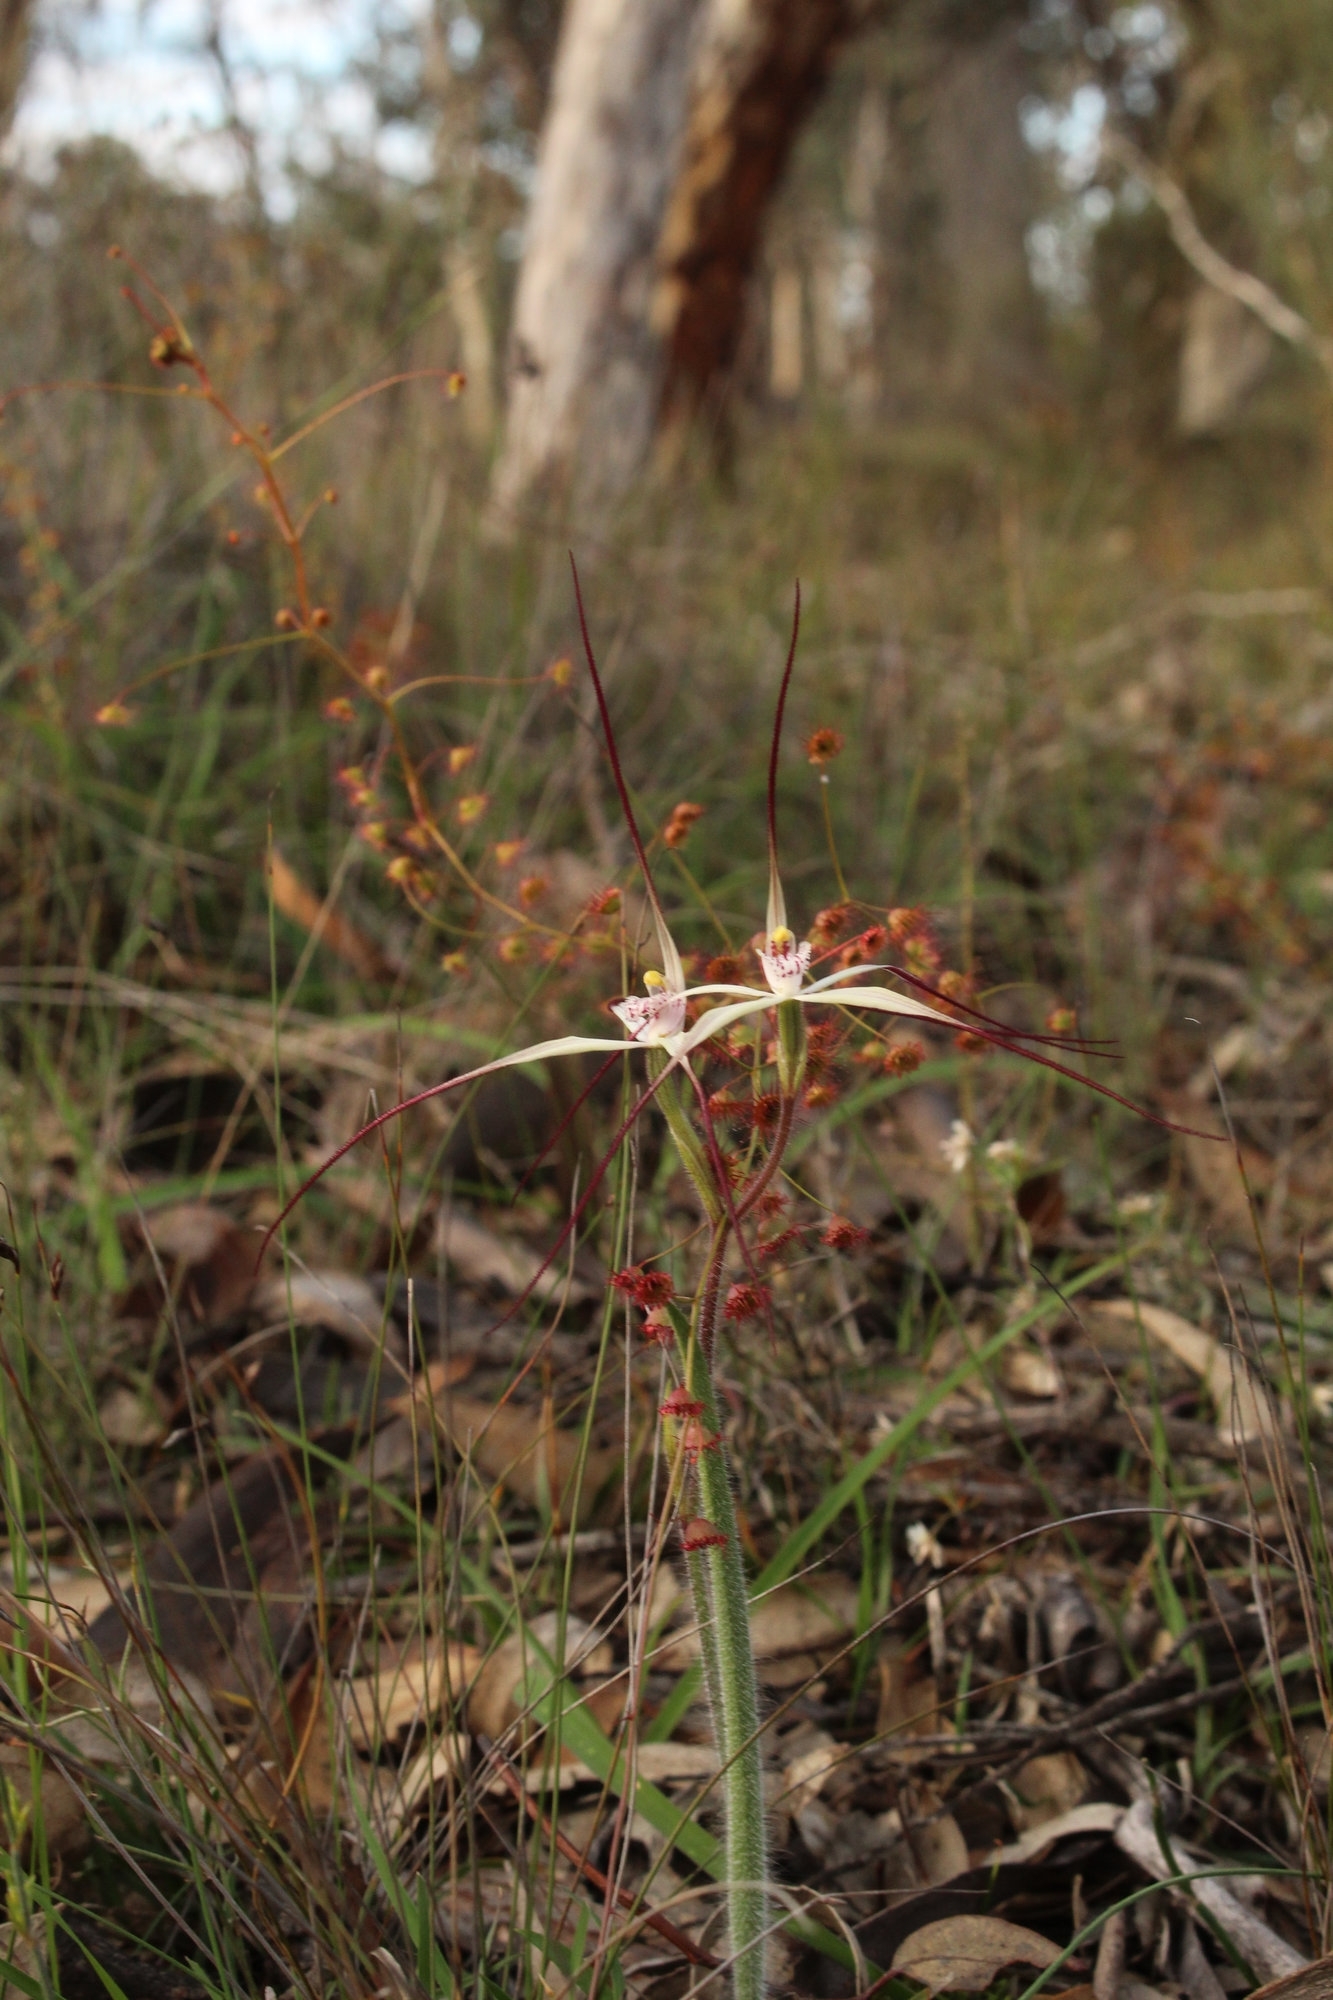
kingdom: Plantae
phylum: Tracheophyta
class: Liliopsida
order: Asparagales
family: Orchidaceae
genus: Caladenia
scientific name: Caladenia hiemalis
